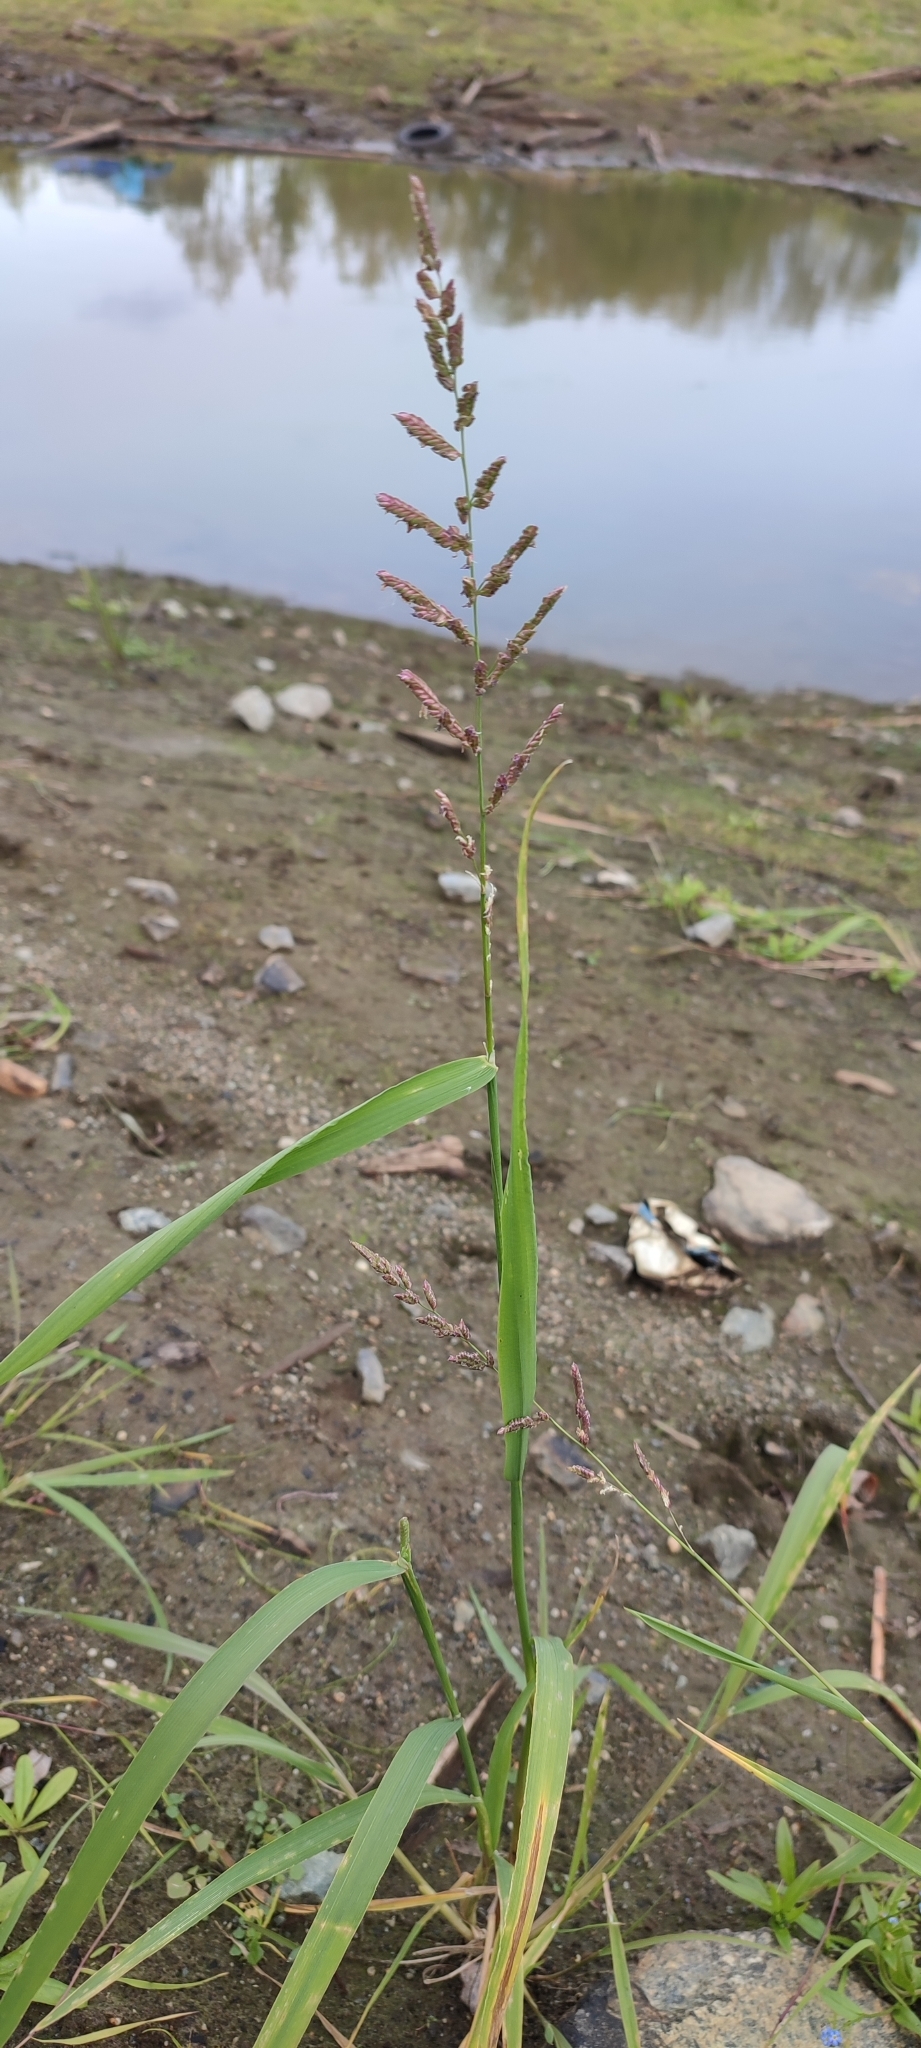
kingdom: Plantae
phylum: Tracheophyta
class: Liliopsida
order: Poales
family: Poaceae
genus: Beckmannia
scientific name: Beckmannia syzigachne
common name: American slough-grass
